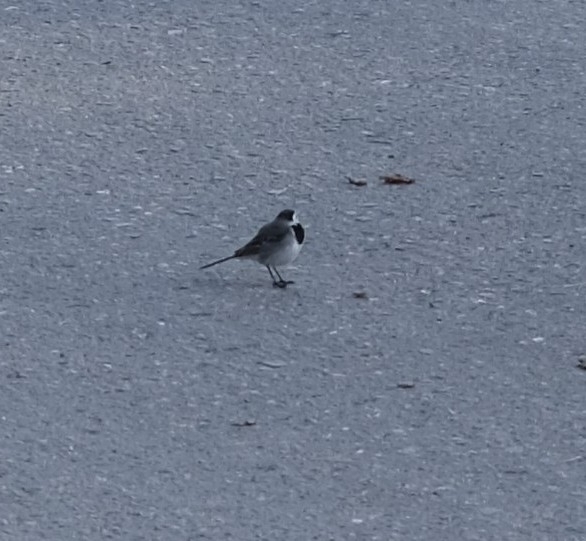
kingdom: Animalia
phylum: Chordata
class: Aves
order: Passeriformes
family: Motacillidae
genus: Motacilla
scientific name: Motacilla alba
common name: White wagtail
